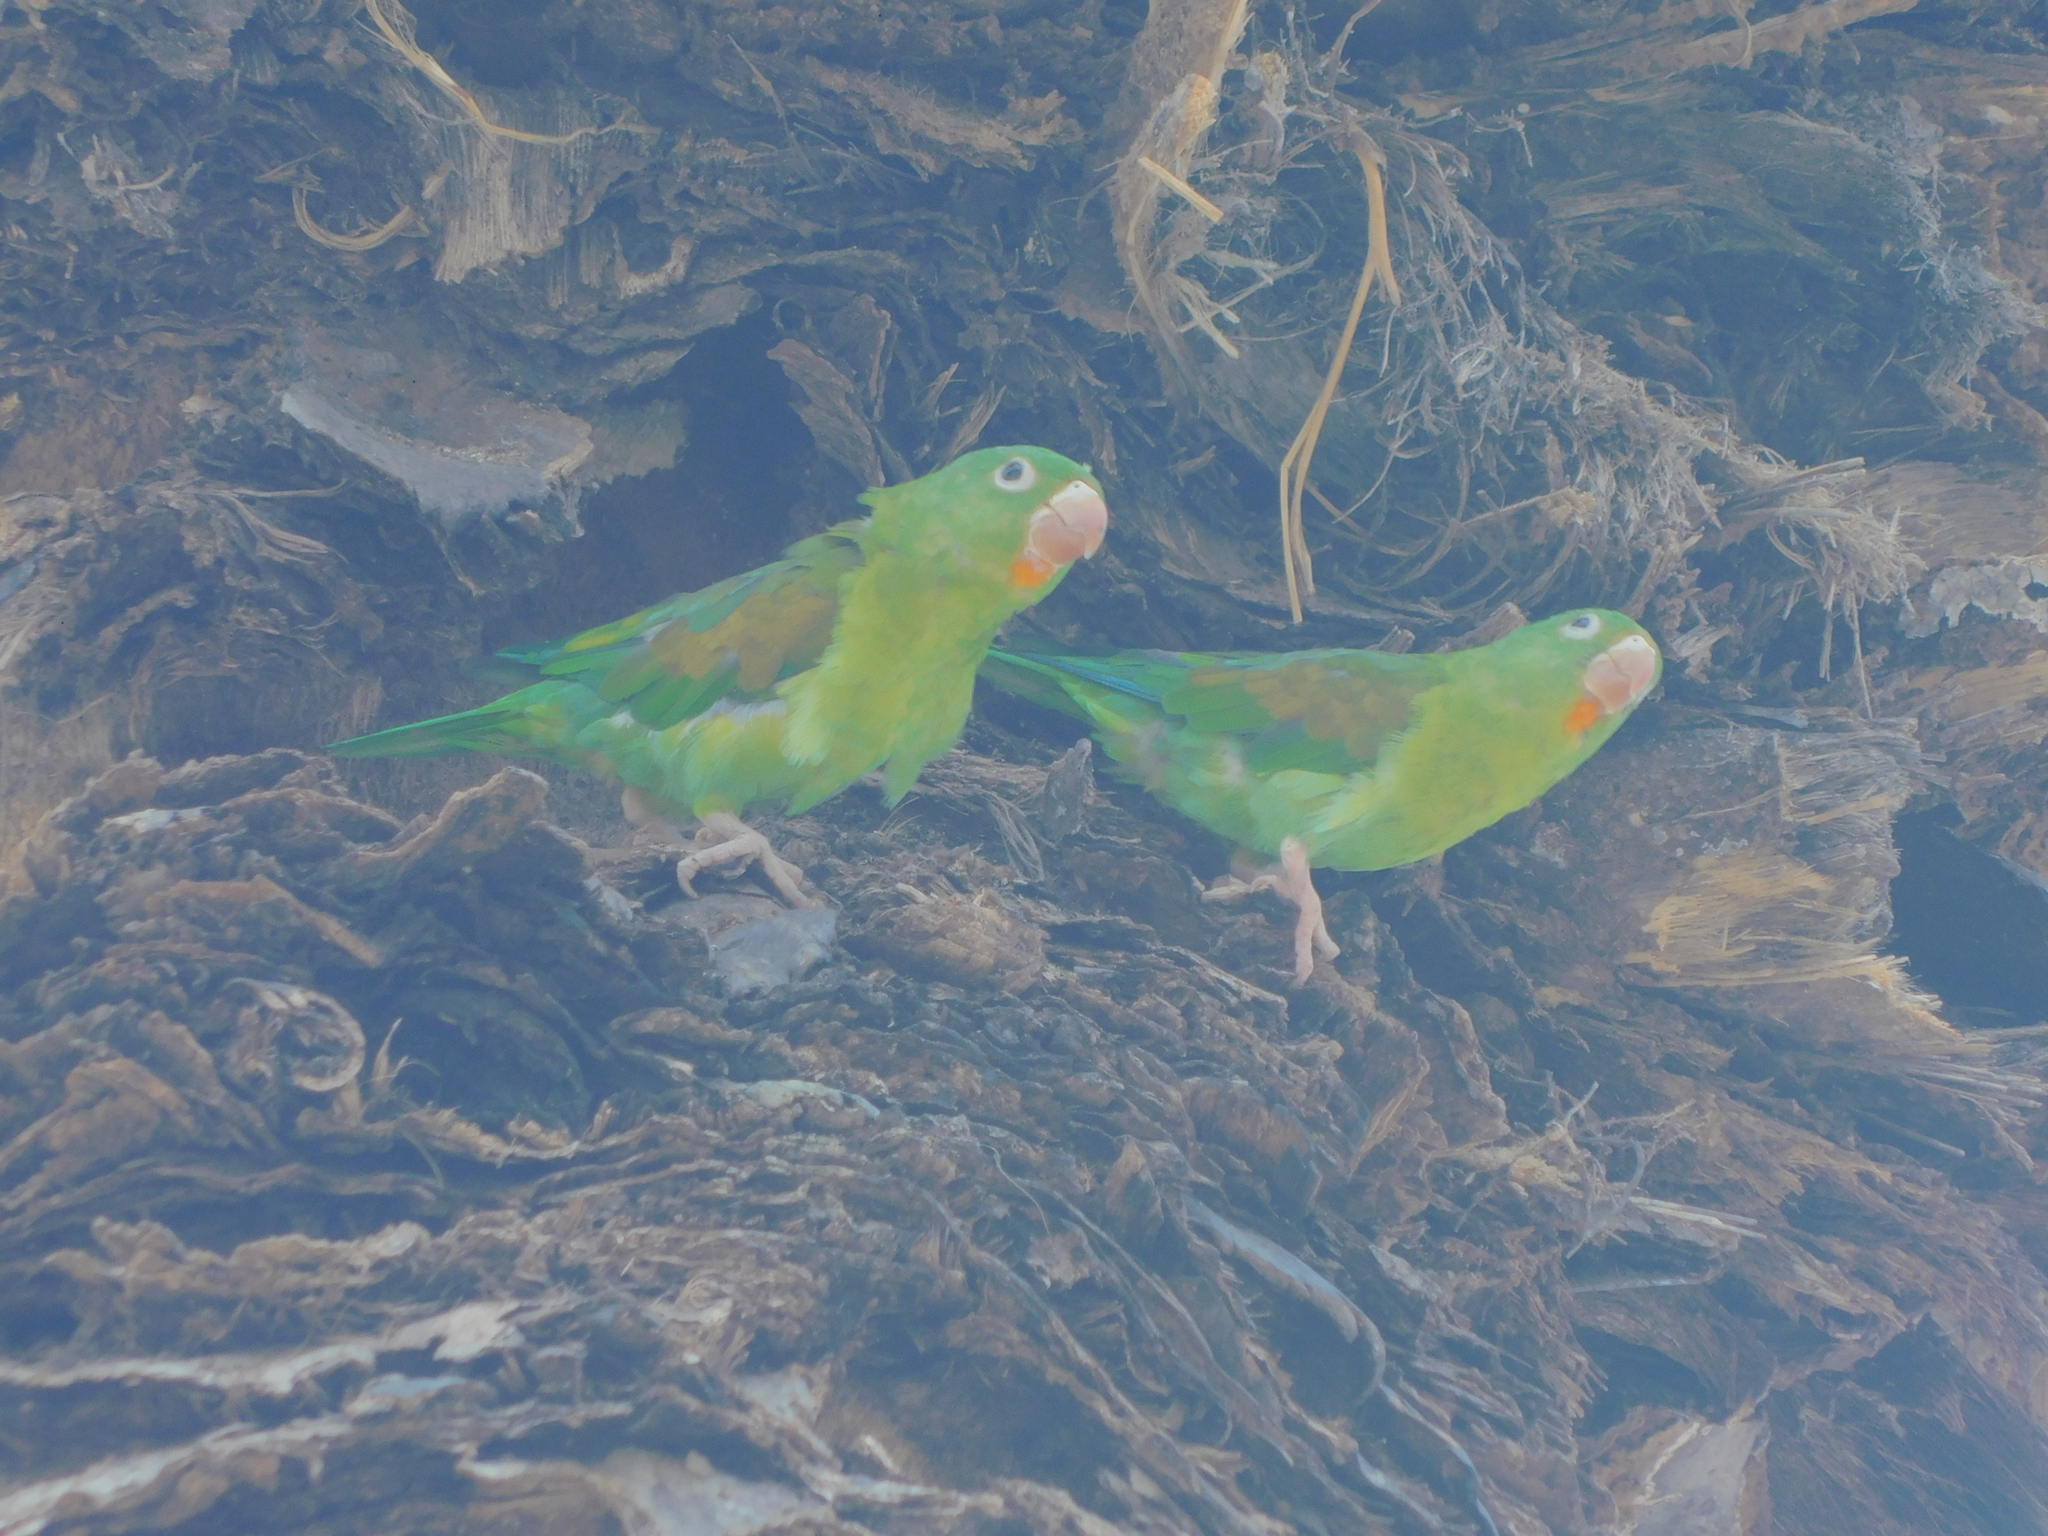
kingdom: Animalia
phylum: Chordata
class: Aves
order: Psittaciformes
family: Psittacidae
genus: Brotogeris
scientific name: Brotogeris jugularis
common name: Orange-chinned parakeet
